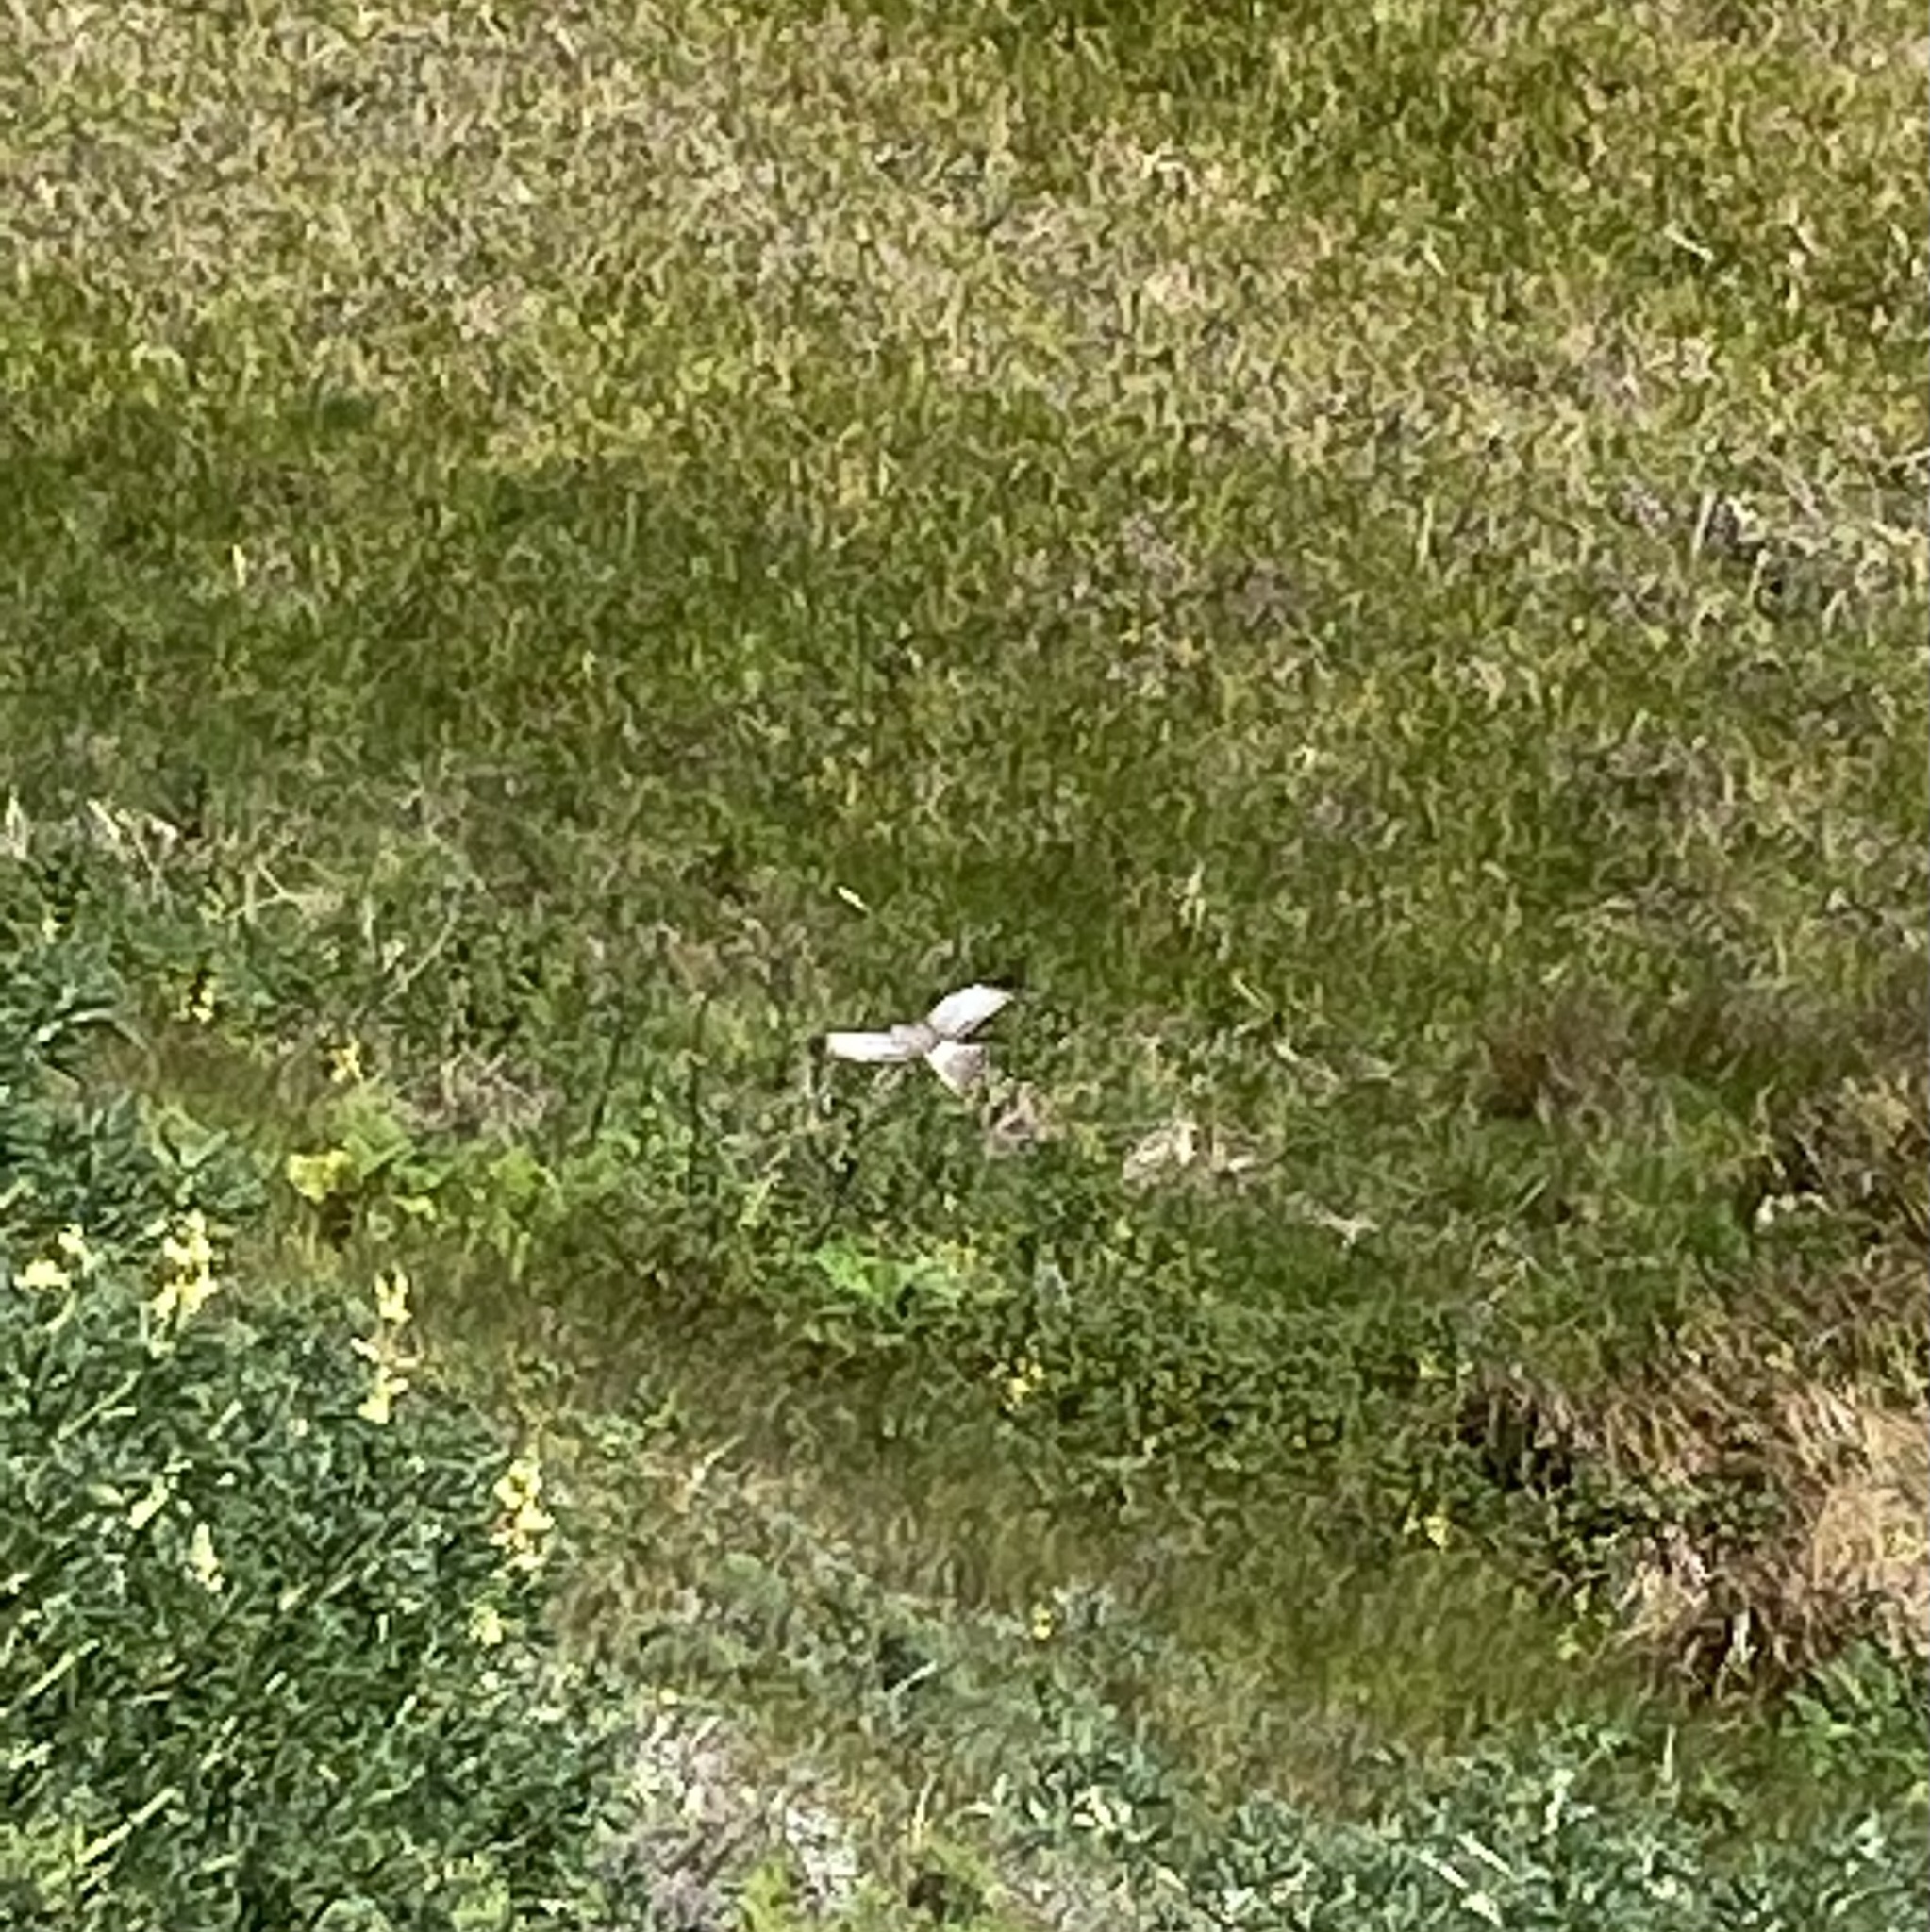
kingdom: Animalia
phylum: Chordata
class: Aves
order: Accipitriformes
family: Accipitridae
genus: Circus
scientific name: Circus cyaneus
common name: Hen harrier
